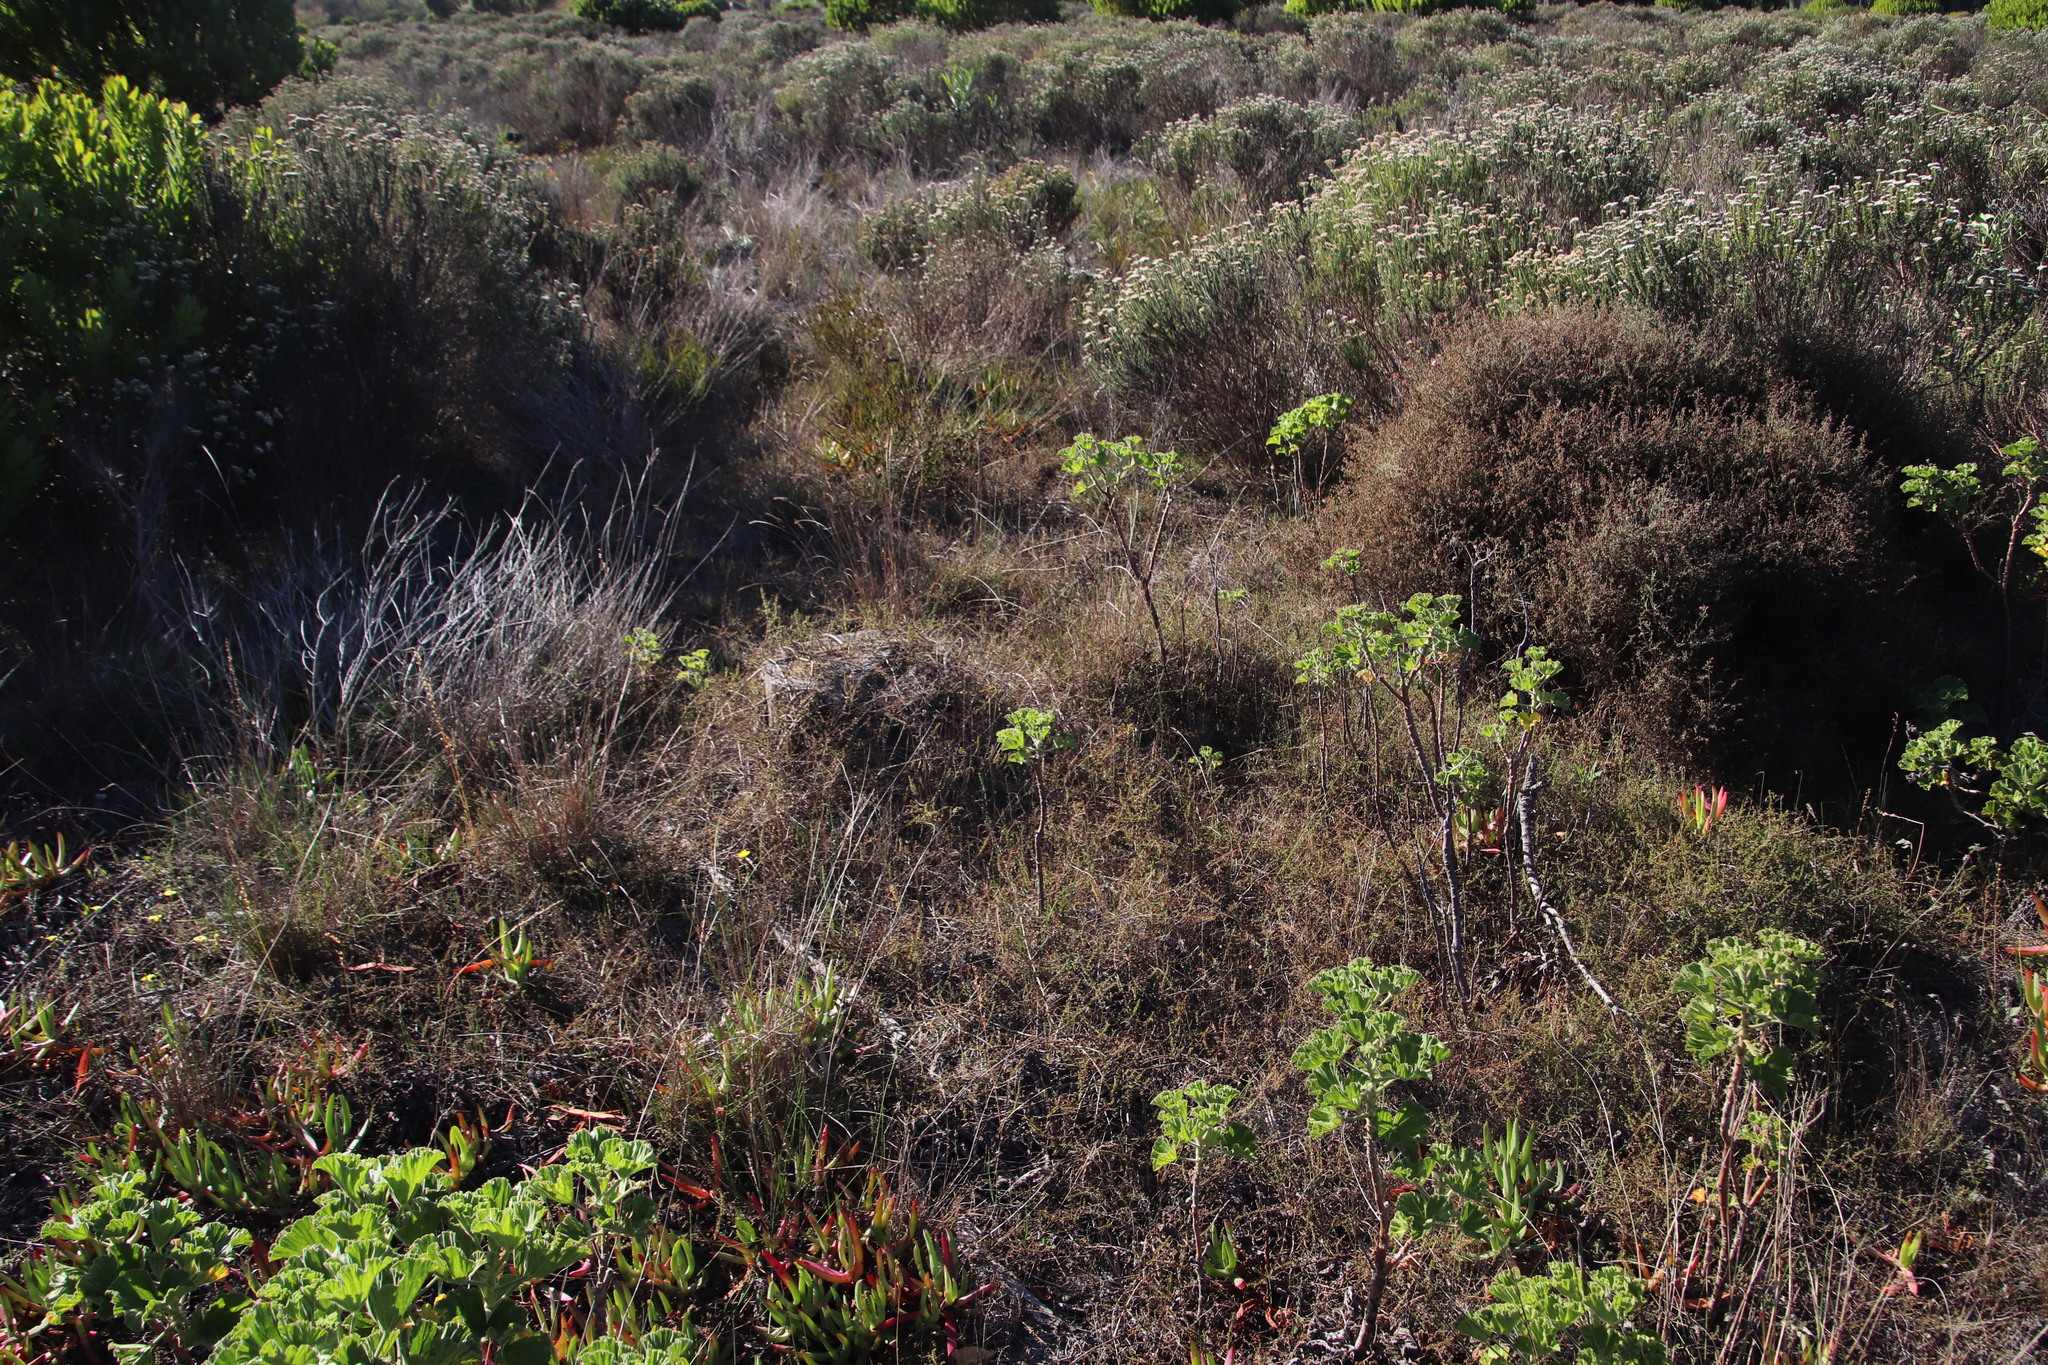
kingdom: Plantae
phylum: Tracheophyta
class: Magnoliopsida
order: Fabales
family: Fabaceae
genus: Aspalathus
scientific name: Aspalathus retroflexa
